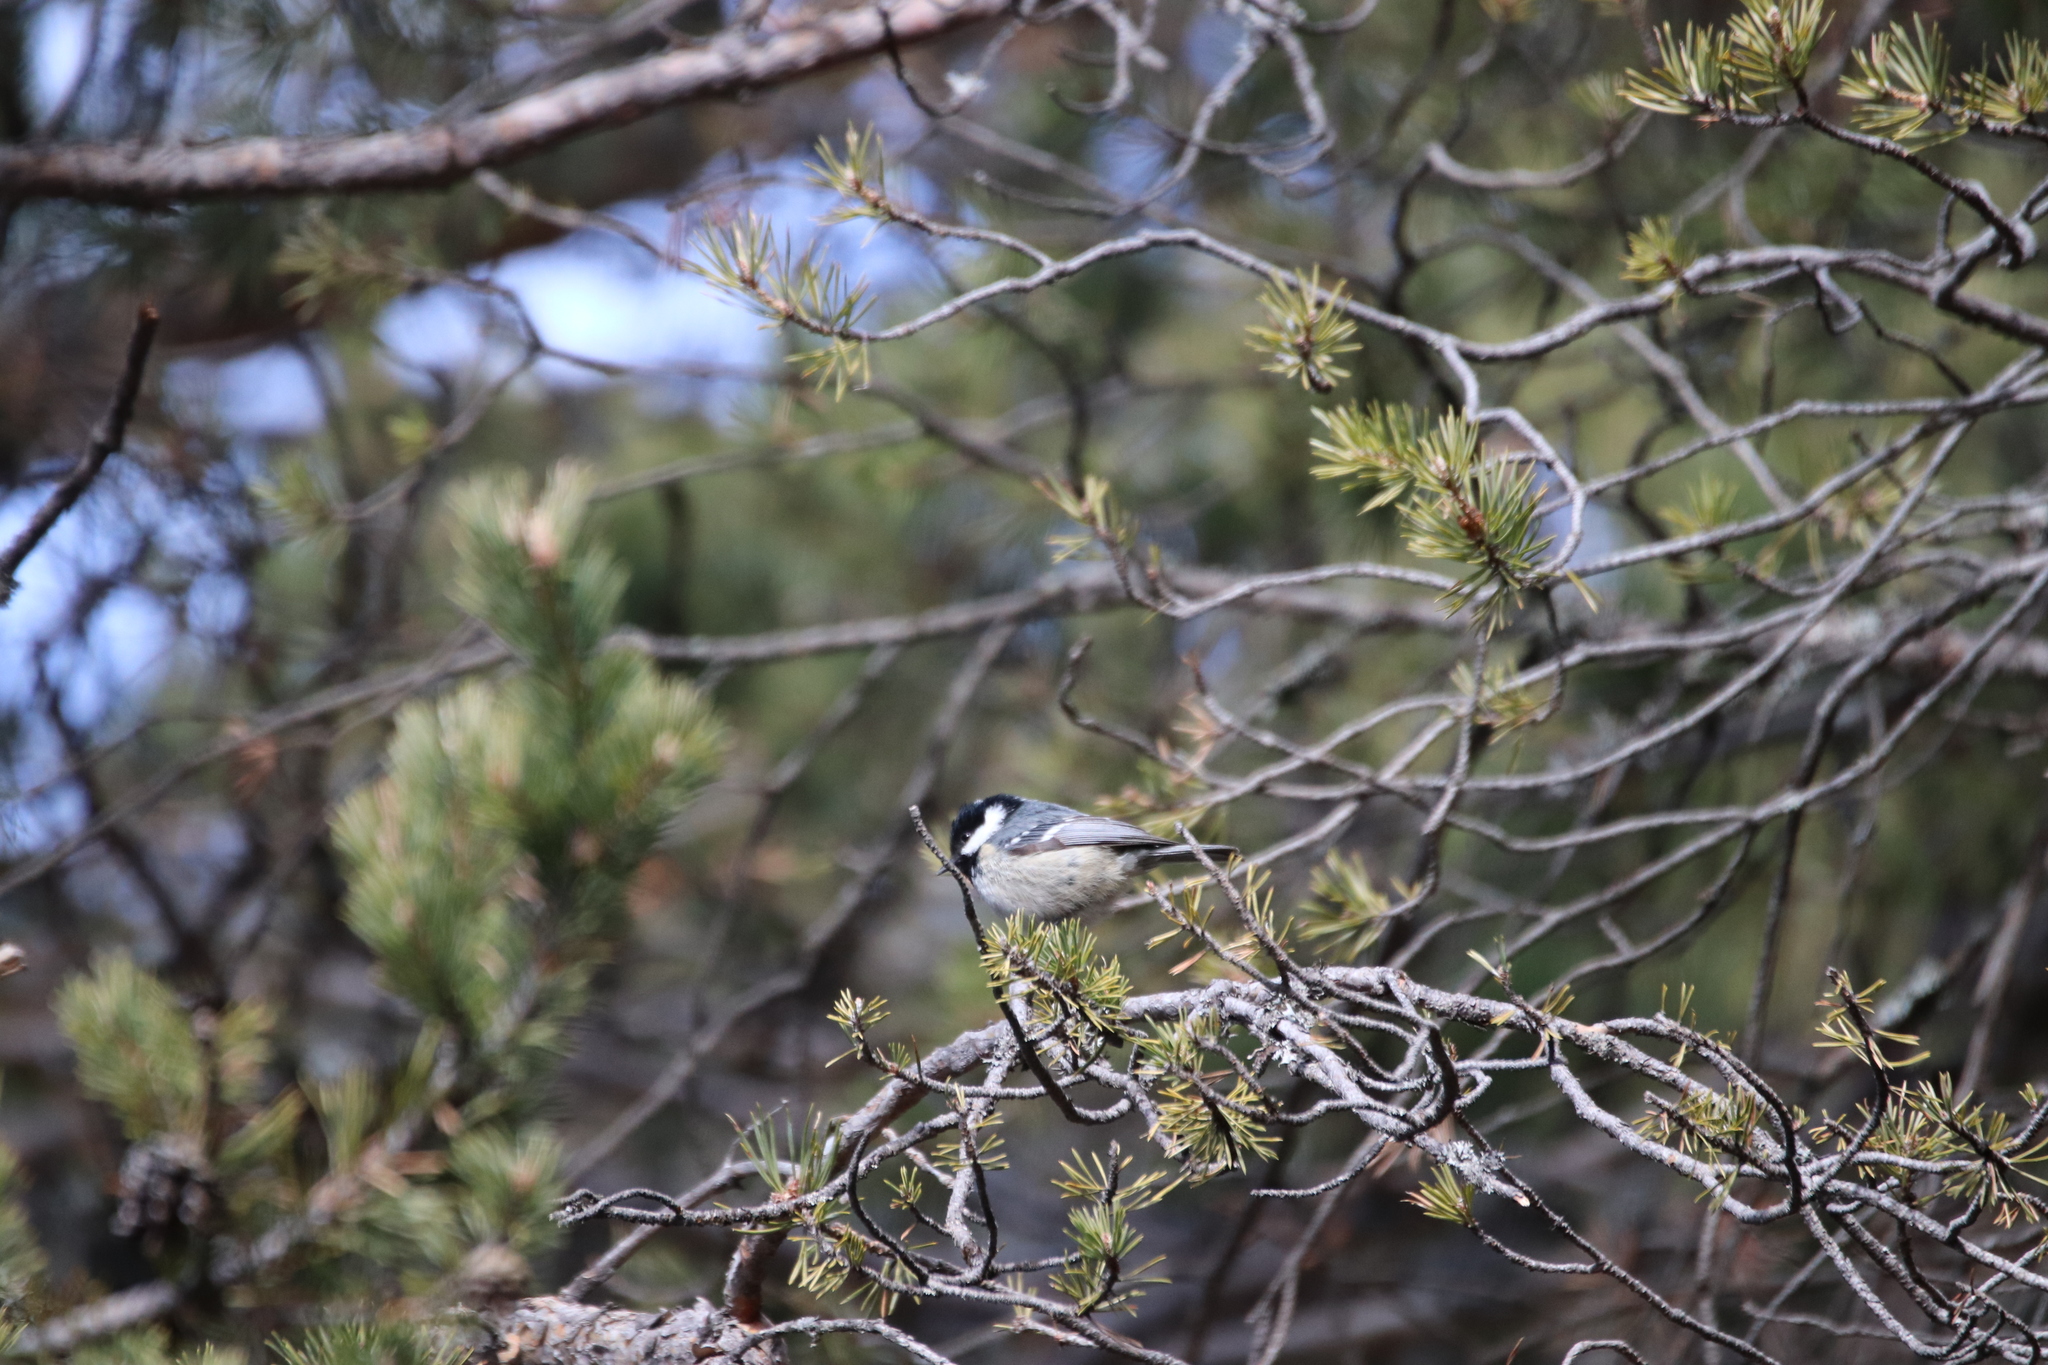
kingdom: Animalia
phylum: Chordata
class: Aves
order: Passeriformes
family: Paridae
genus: Periparus
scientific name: Periparus ater
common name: Coal tit
